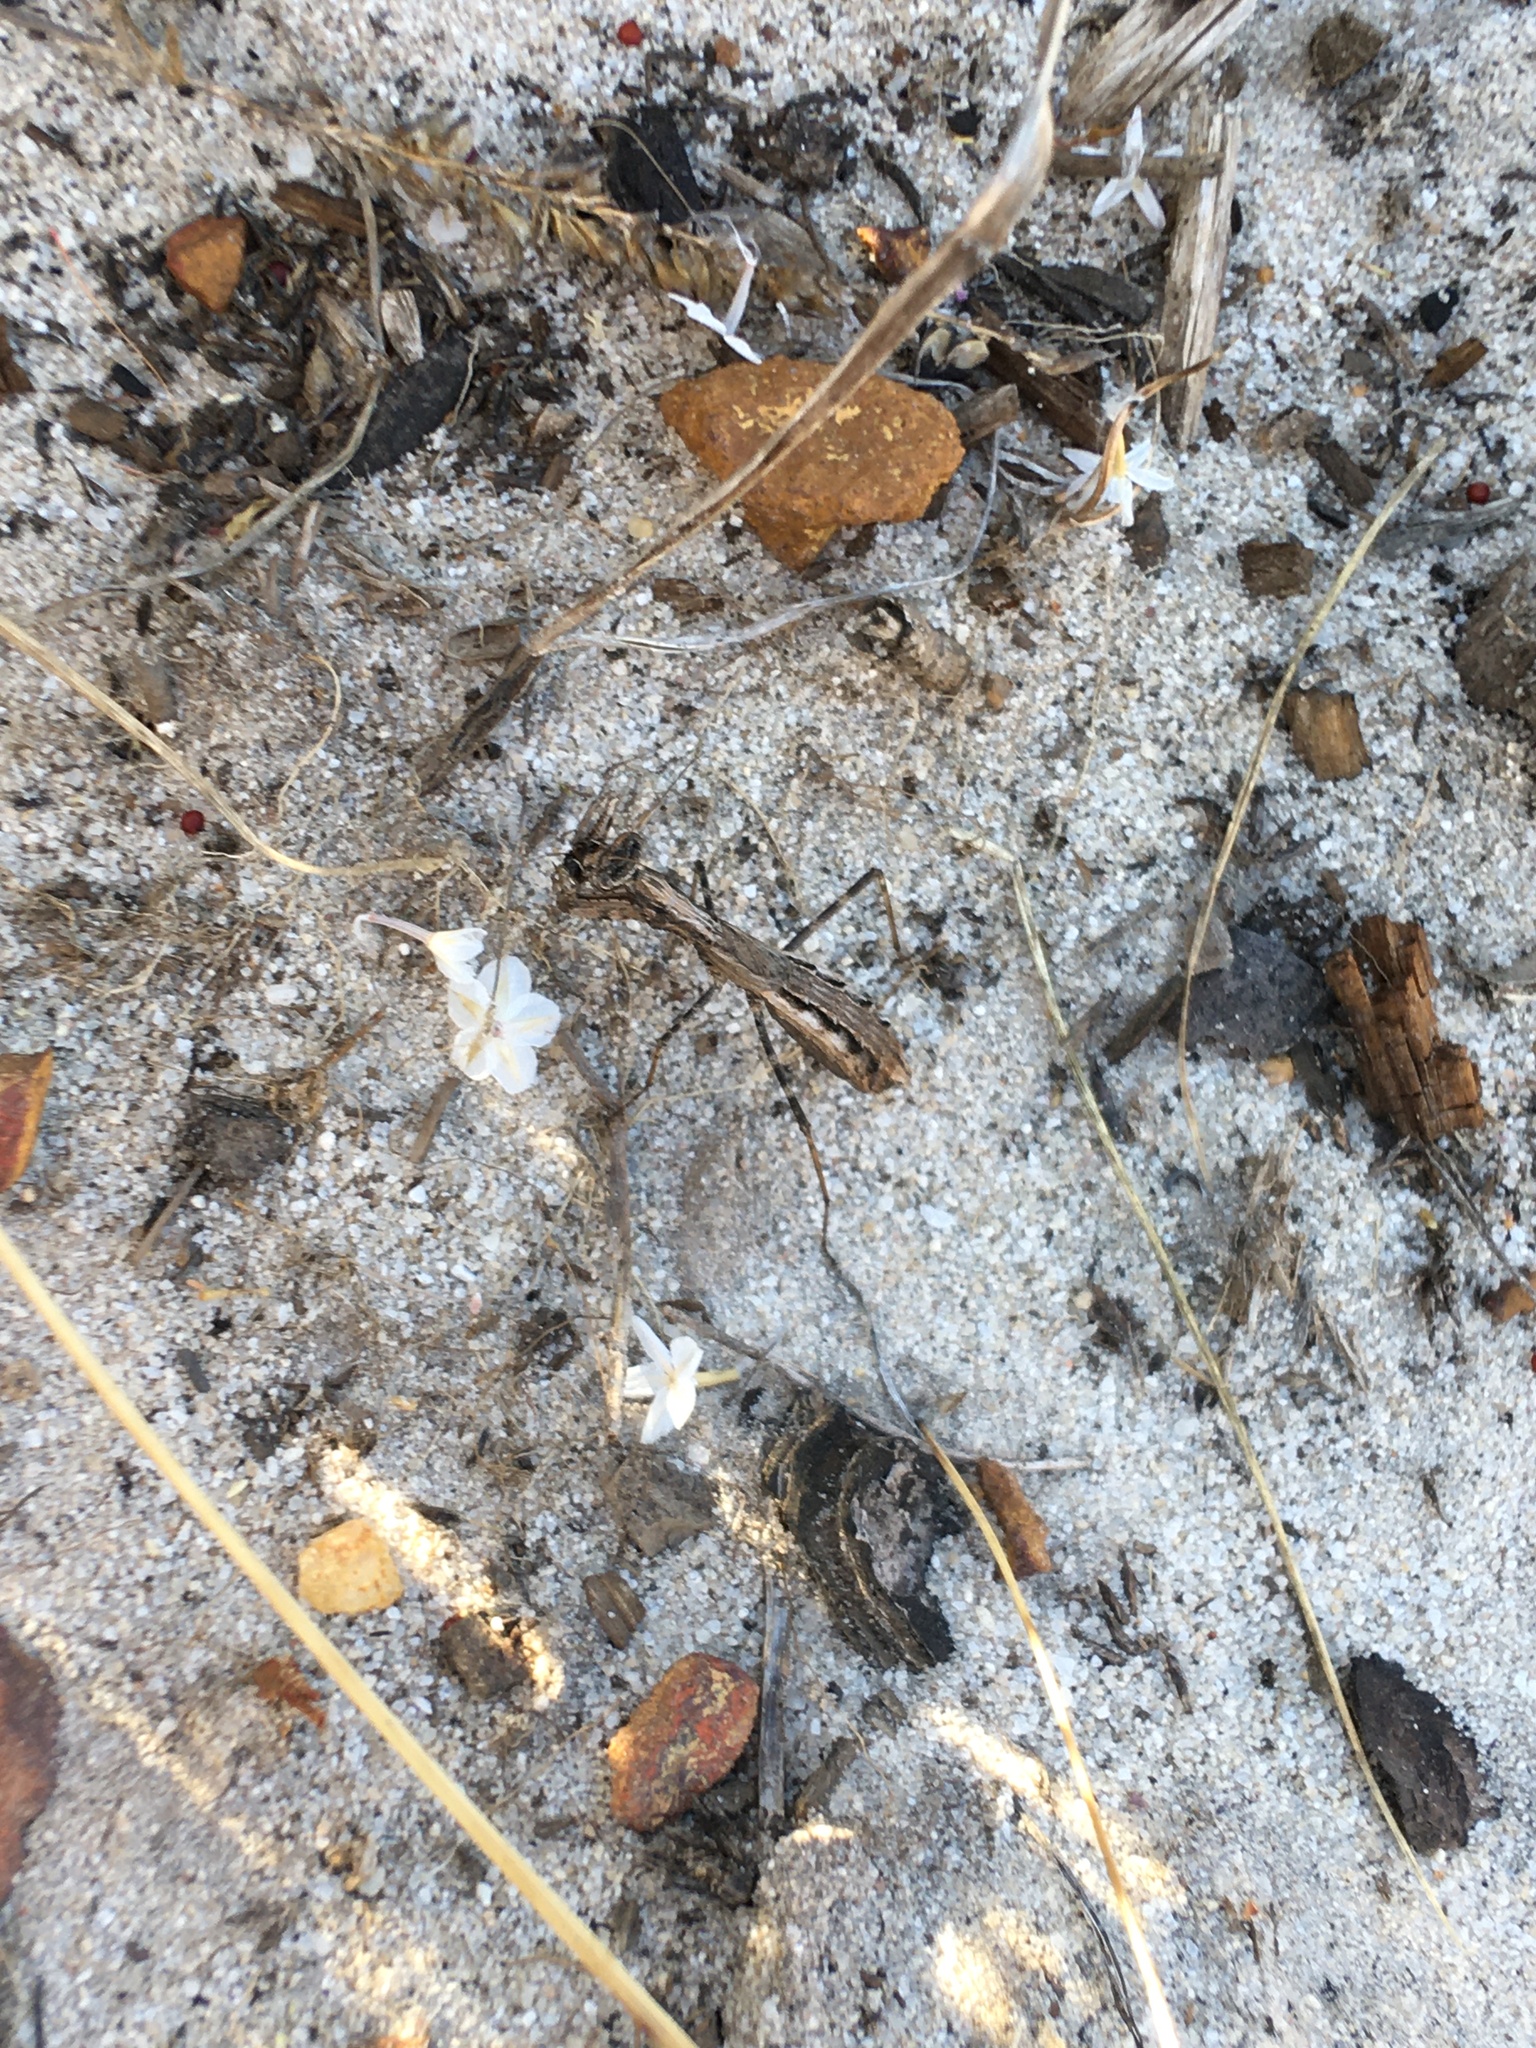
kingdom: Animalia
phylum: Arthropoda
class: Insecta
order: Mantodea
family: Chroicopteridae
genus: Ligariella
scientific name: Ligariella gracilis
